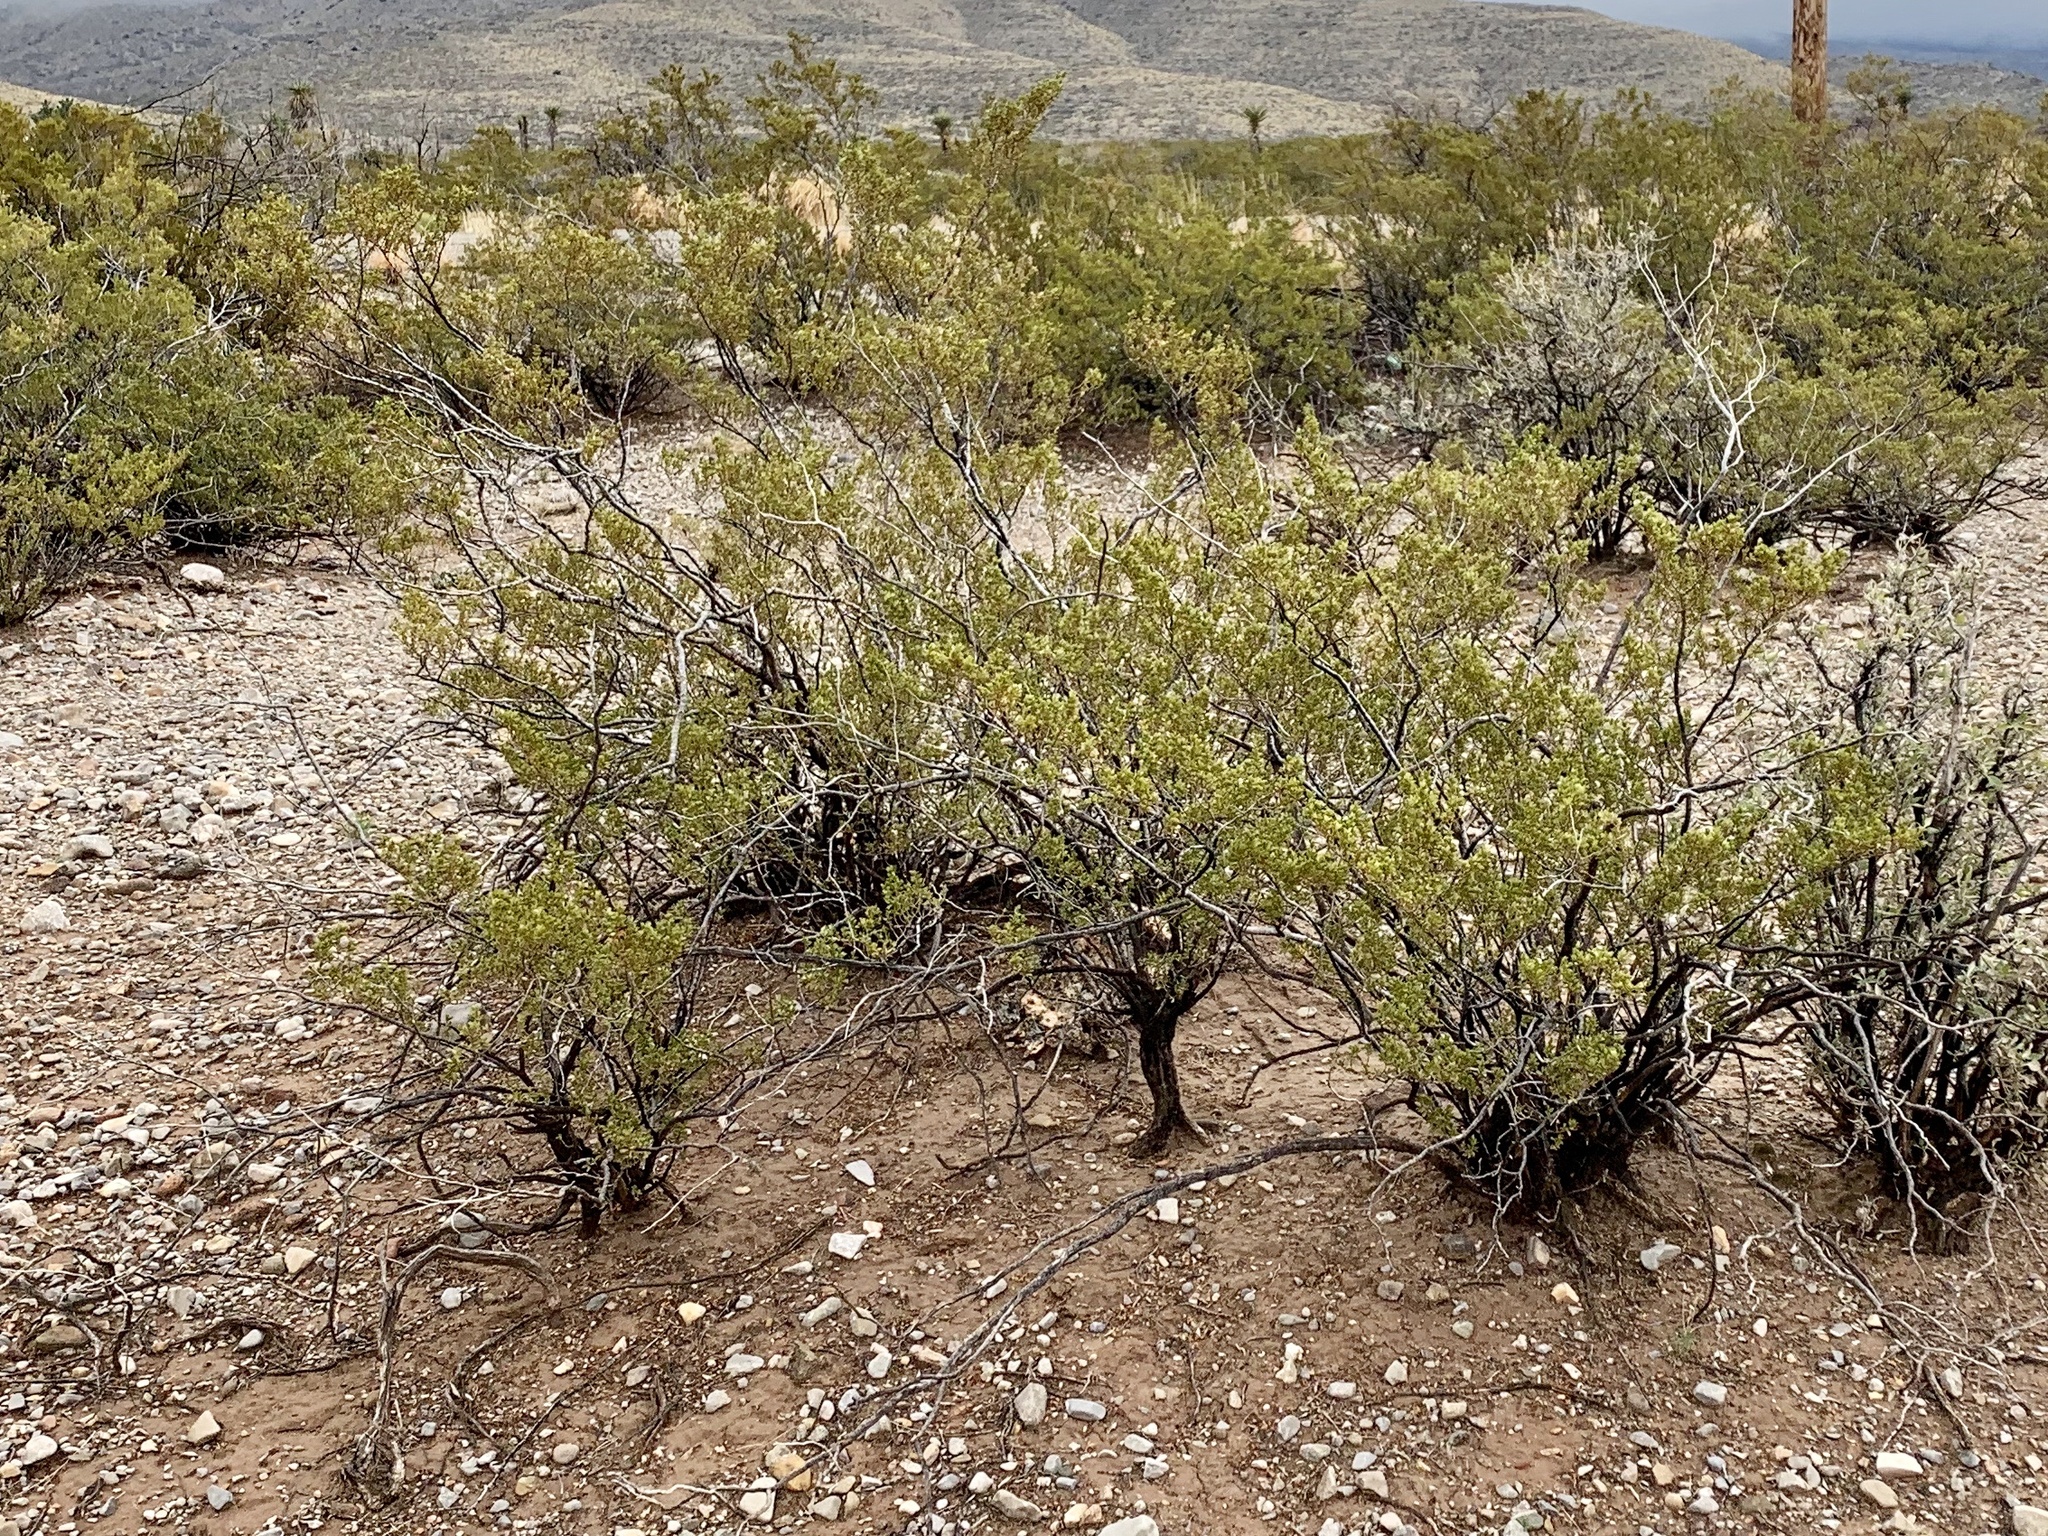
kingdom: Plantae
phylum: Tracheophyta
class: Magnoliopsida
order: Zygophyllales
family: Zygophyllaceae
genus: Larrea
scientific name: Larrea tridentata
